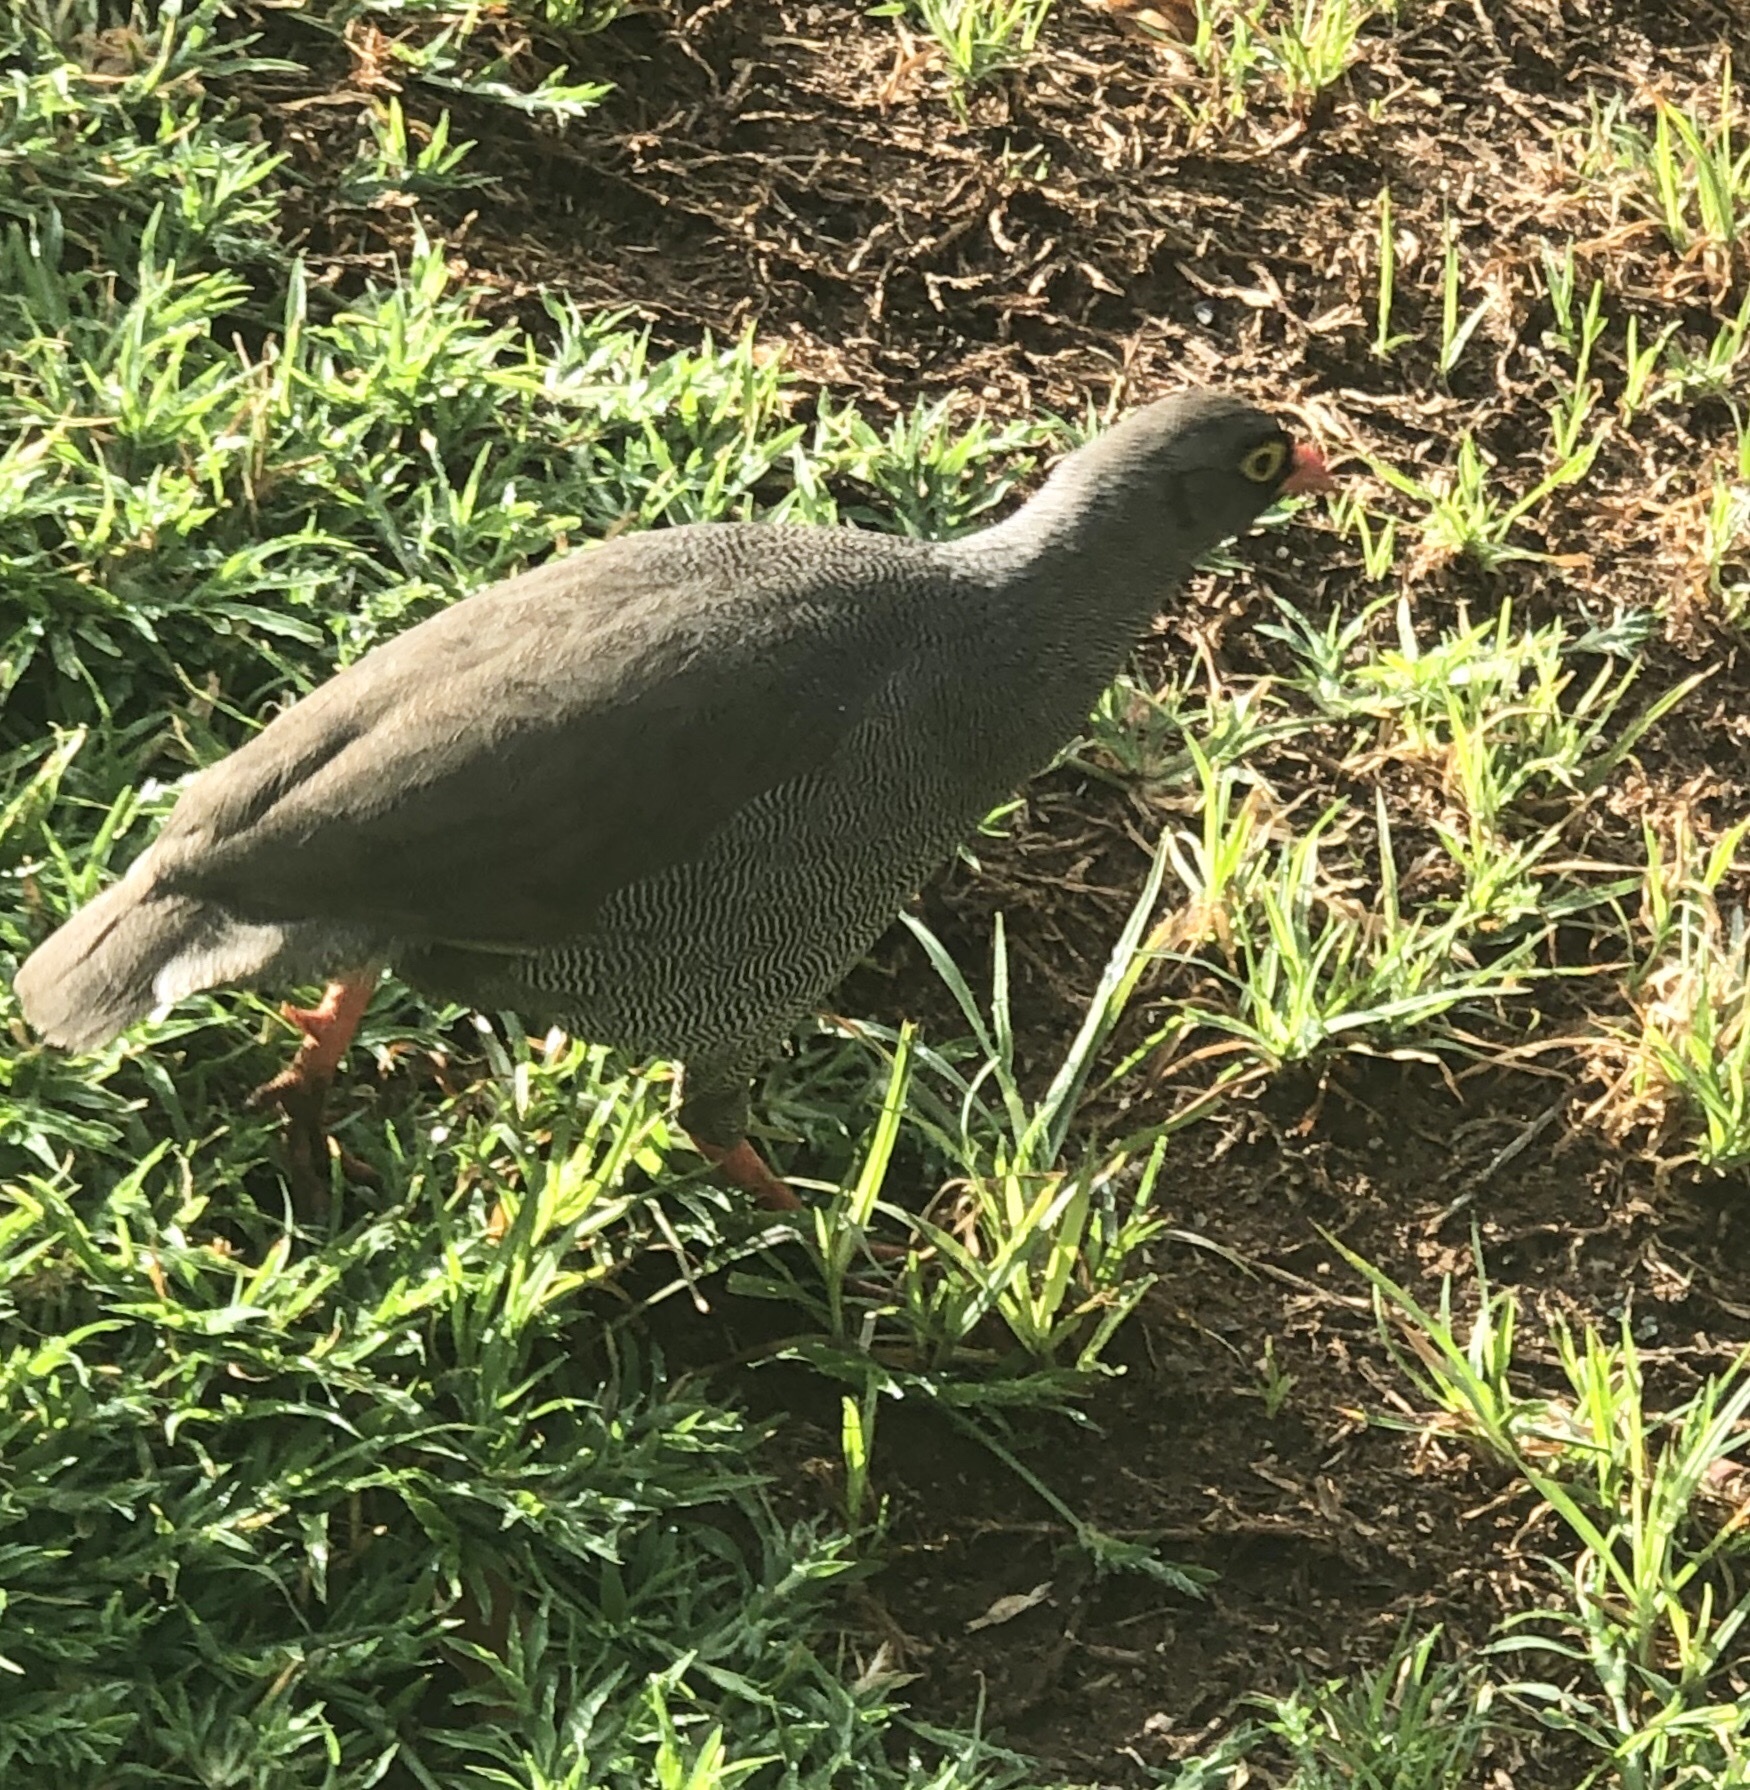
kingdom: Animalia
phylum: Chordata
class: Aves
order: Galliformes
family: Phasianidae
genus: Pternistis
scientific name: Pternistis adspersus
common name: Red-billed spurfowl
